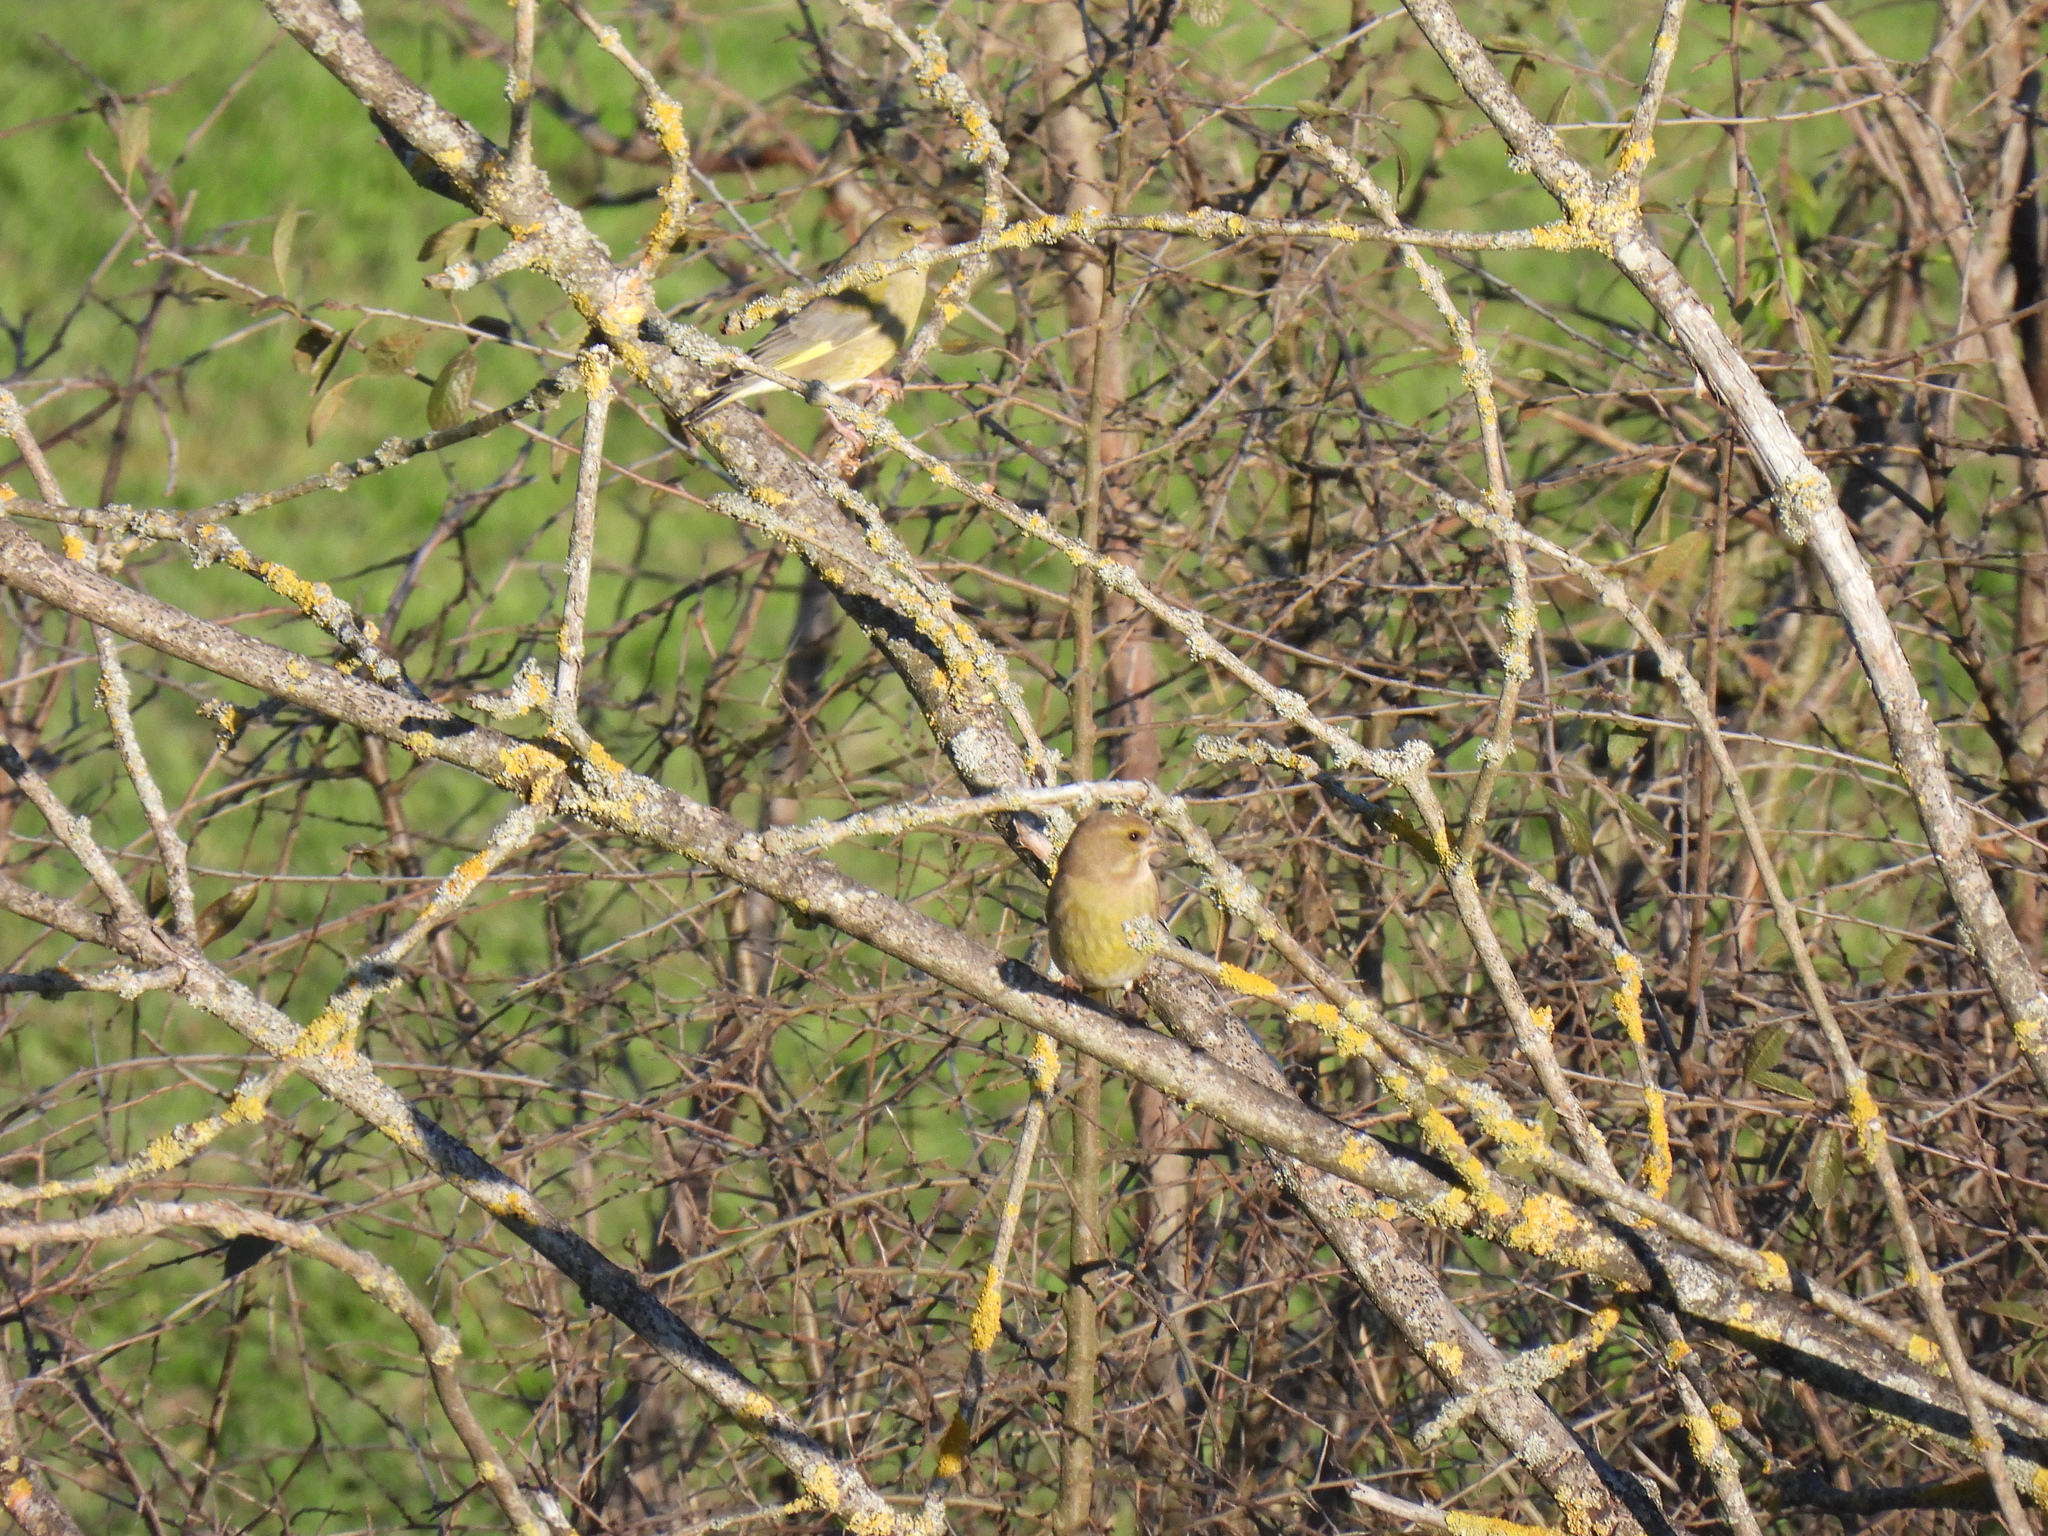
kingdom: Plantae
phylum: Tracheophyta
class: Liliopsida
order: Poales
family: Poaceae
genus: Chloris
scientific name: Chloris chloris
